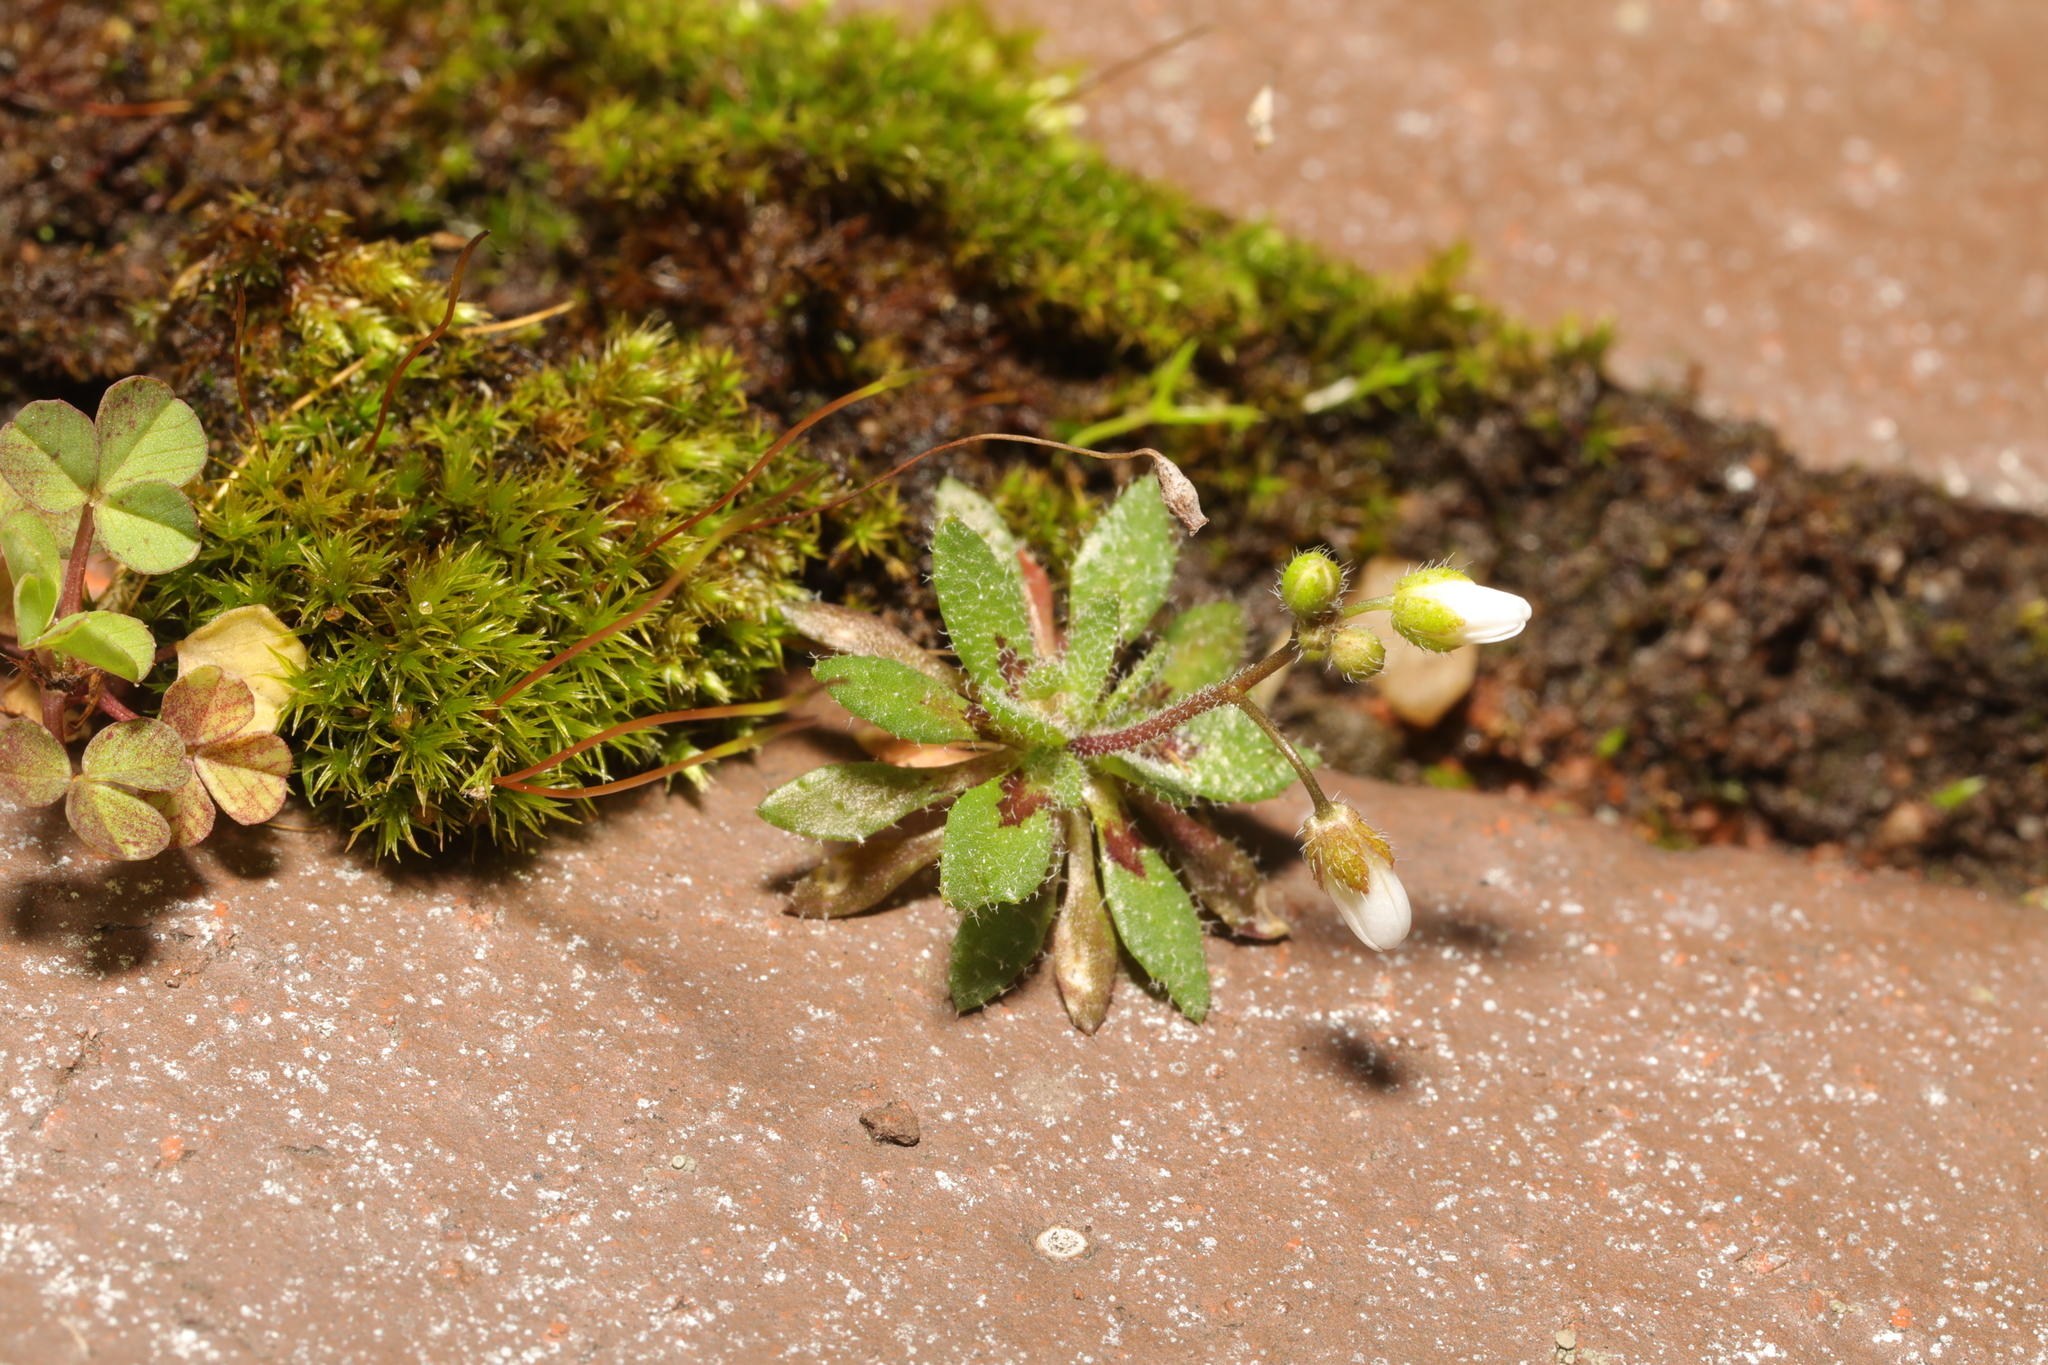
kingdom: Plantae
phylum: Tracheophyta
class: Magnoliopsida
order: Brassicales
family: Brassicaceae
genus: Draba
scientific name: Draba verna
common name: Spring draba
